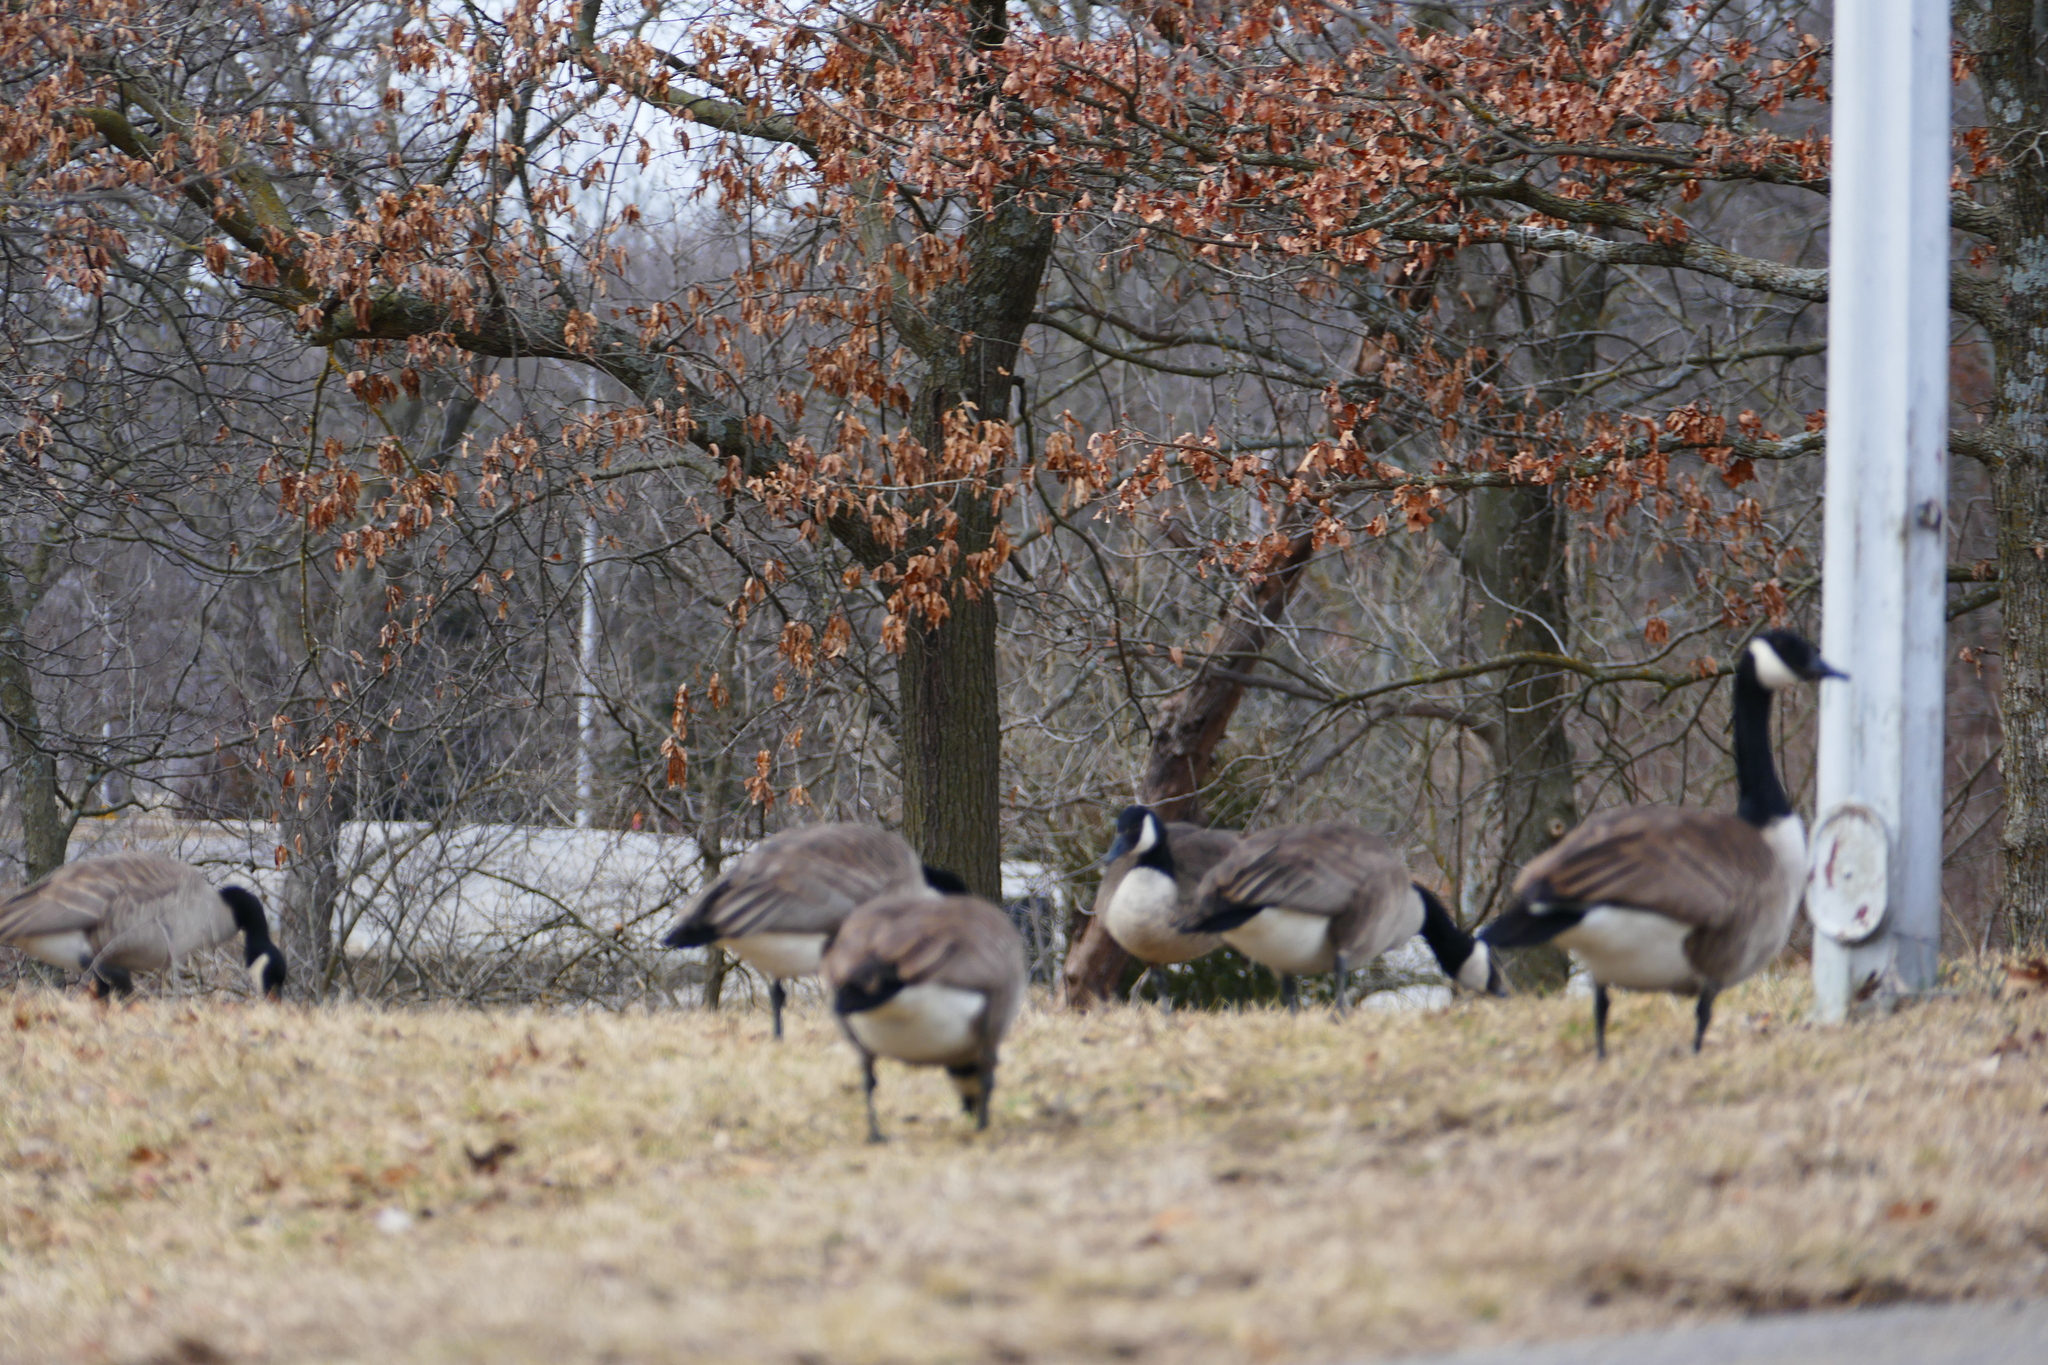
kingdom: Animalia
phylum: Chordata
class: Aves
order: Anseriformes
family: Anatidae
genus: Branta
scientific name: Branta canadensis
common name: Canada goose
